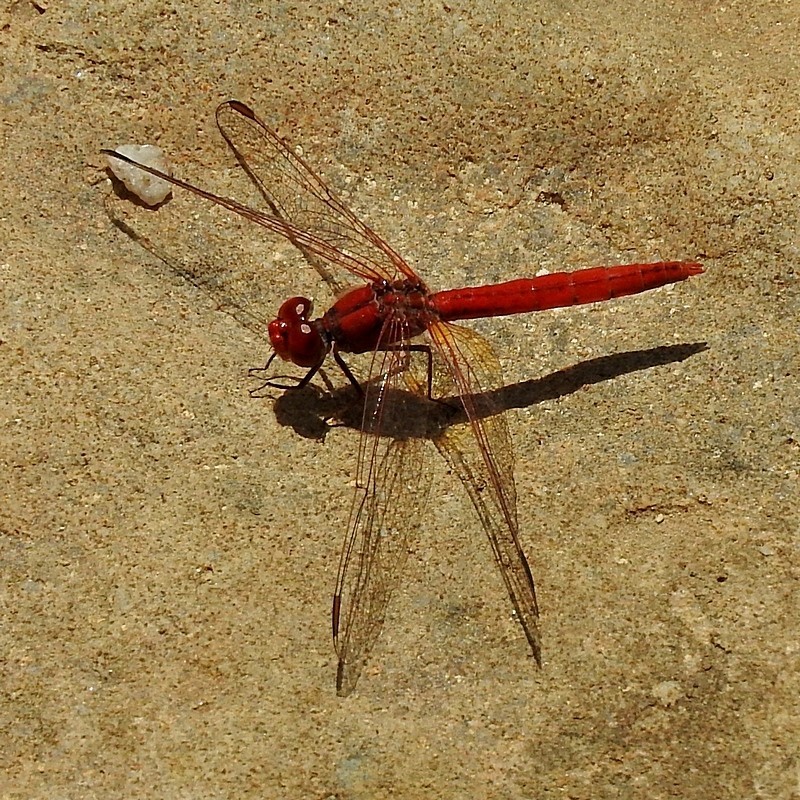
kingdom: Animalia
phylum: Arthropoda
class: Insecta
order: Odonata
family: Libellulidae
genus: Diplacodes
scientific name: Diplacodes haematodes
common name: Scarlet percher
